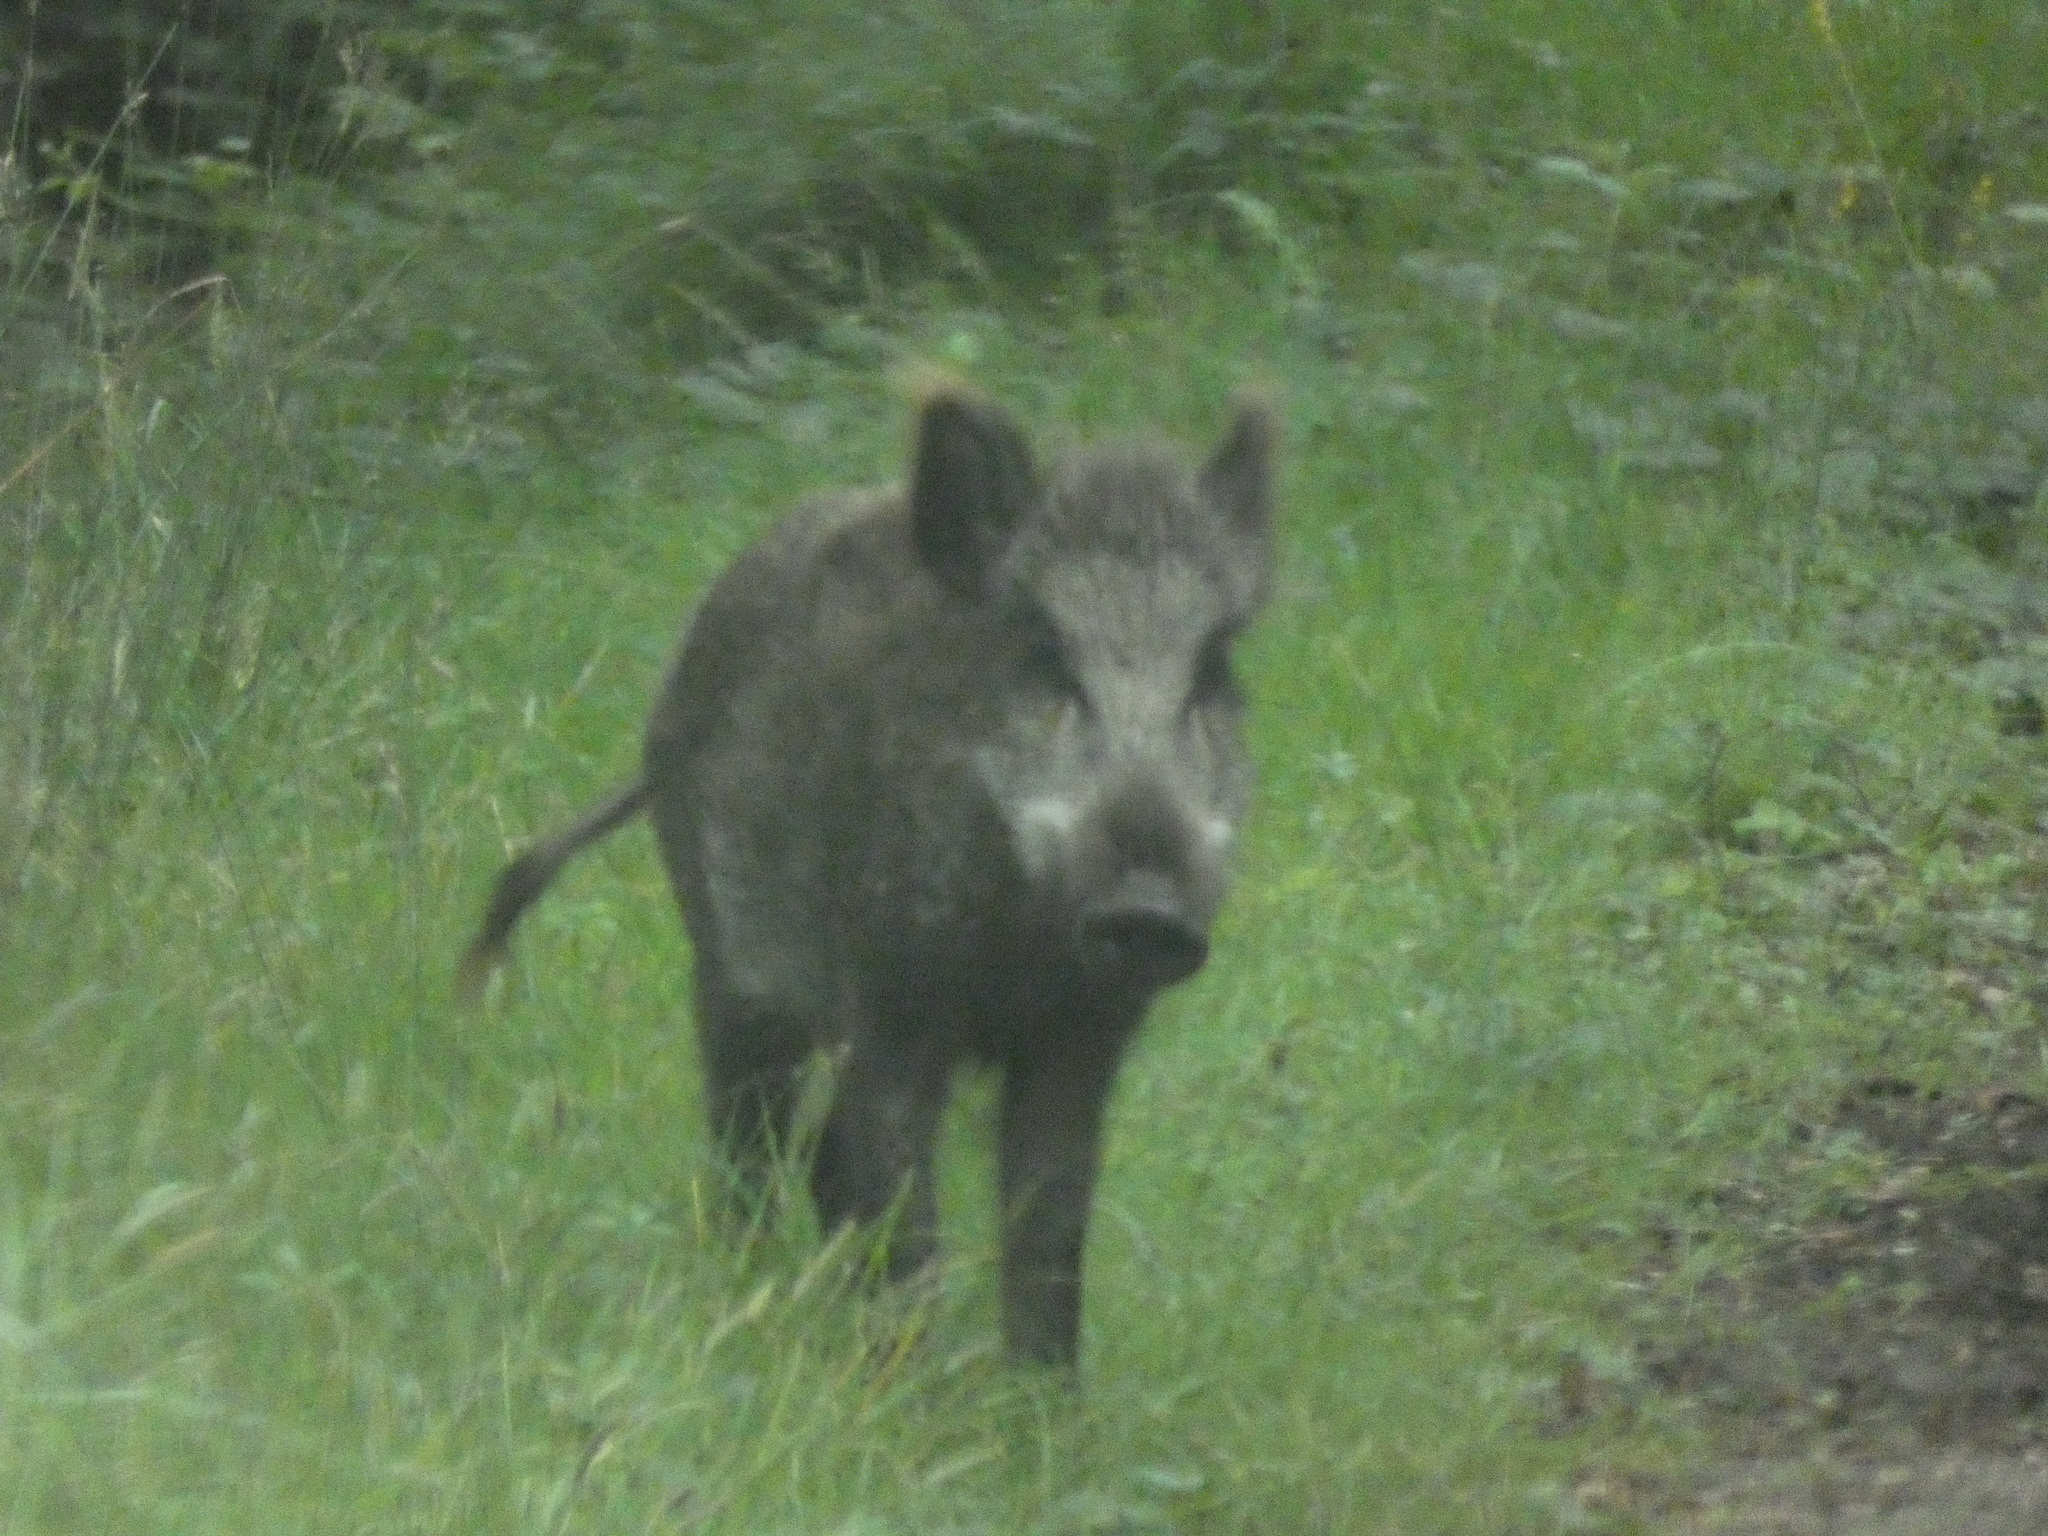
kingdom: Animalia
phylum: Chordata
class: Mammalia
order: Artiodactyla
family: Suidae
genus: Sus
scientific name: Sus scrofa
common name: Wild boar
